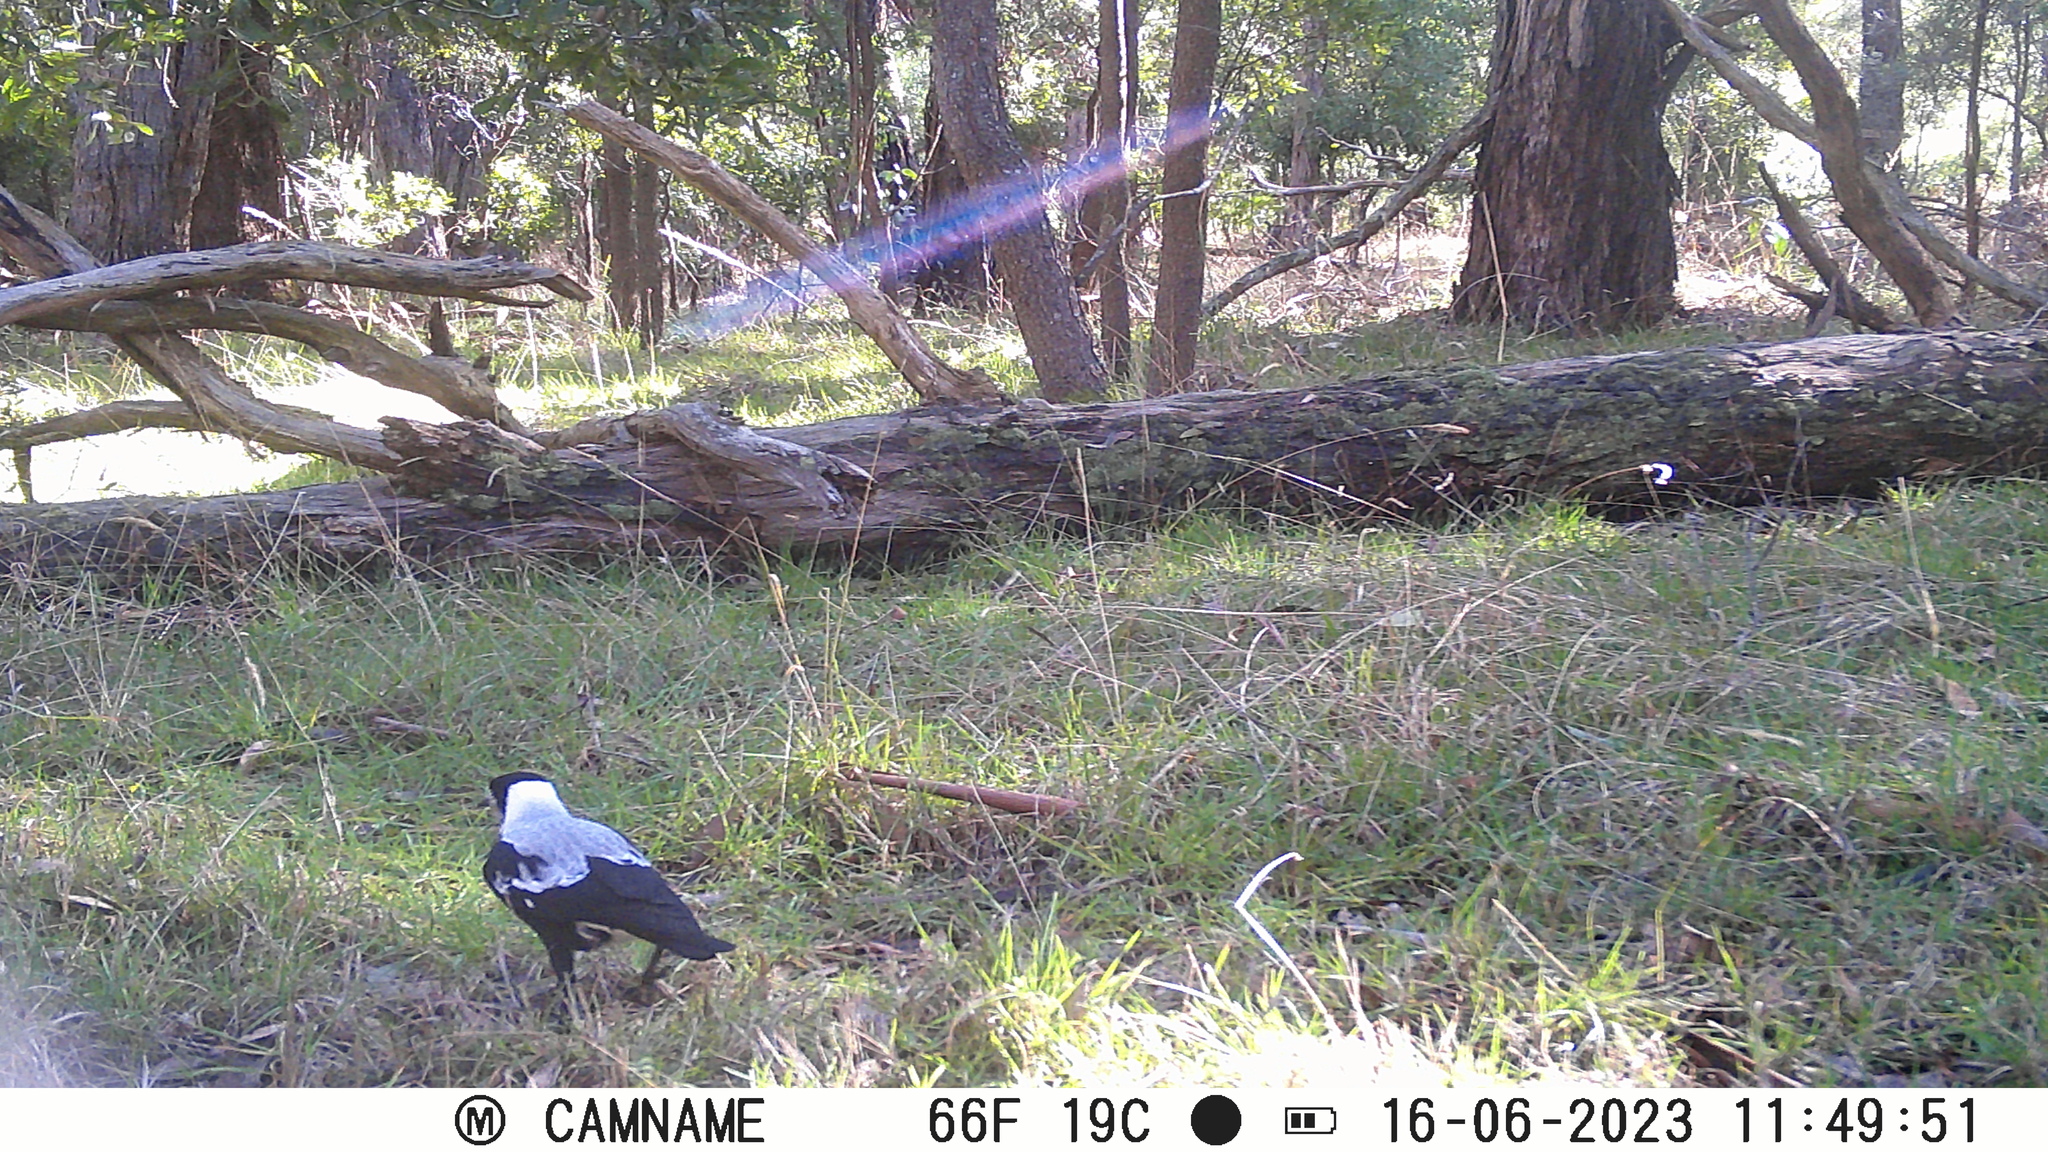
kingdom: Animalia
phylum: Chordata
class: Aves
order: Passeriformes
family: Cracticidae
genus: Gymnorhina
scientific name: Gymnorhina tibicen
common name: Australian magpie
